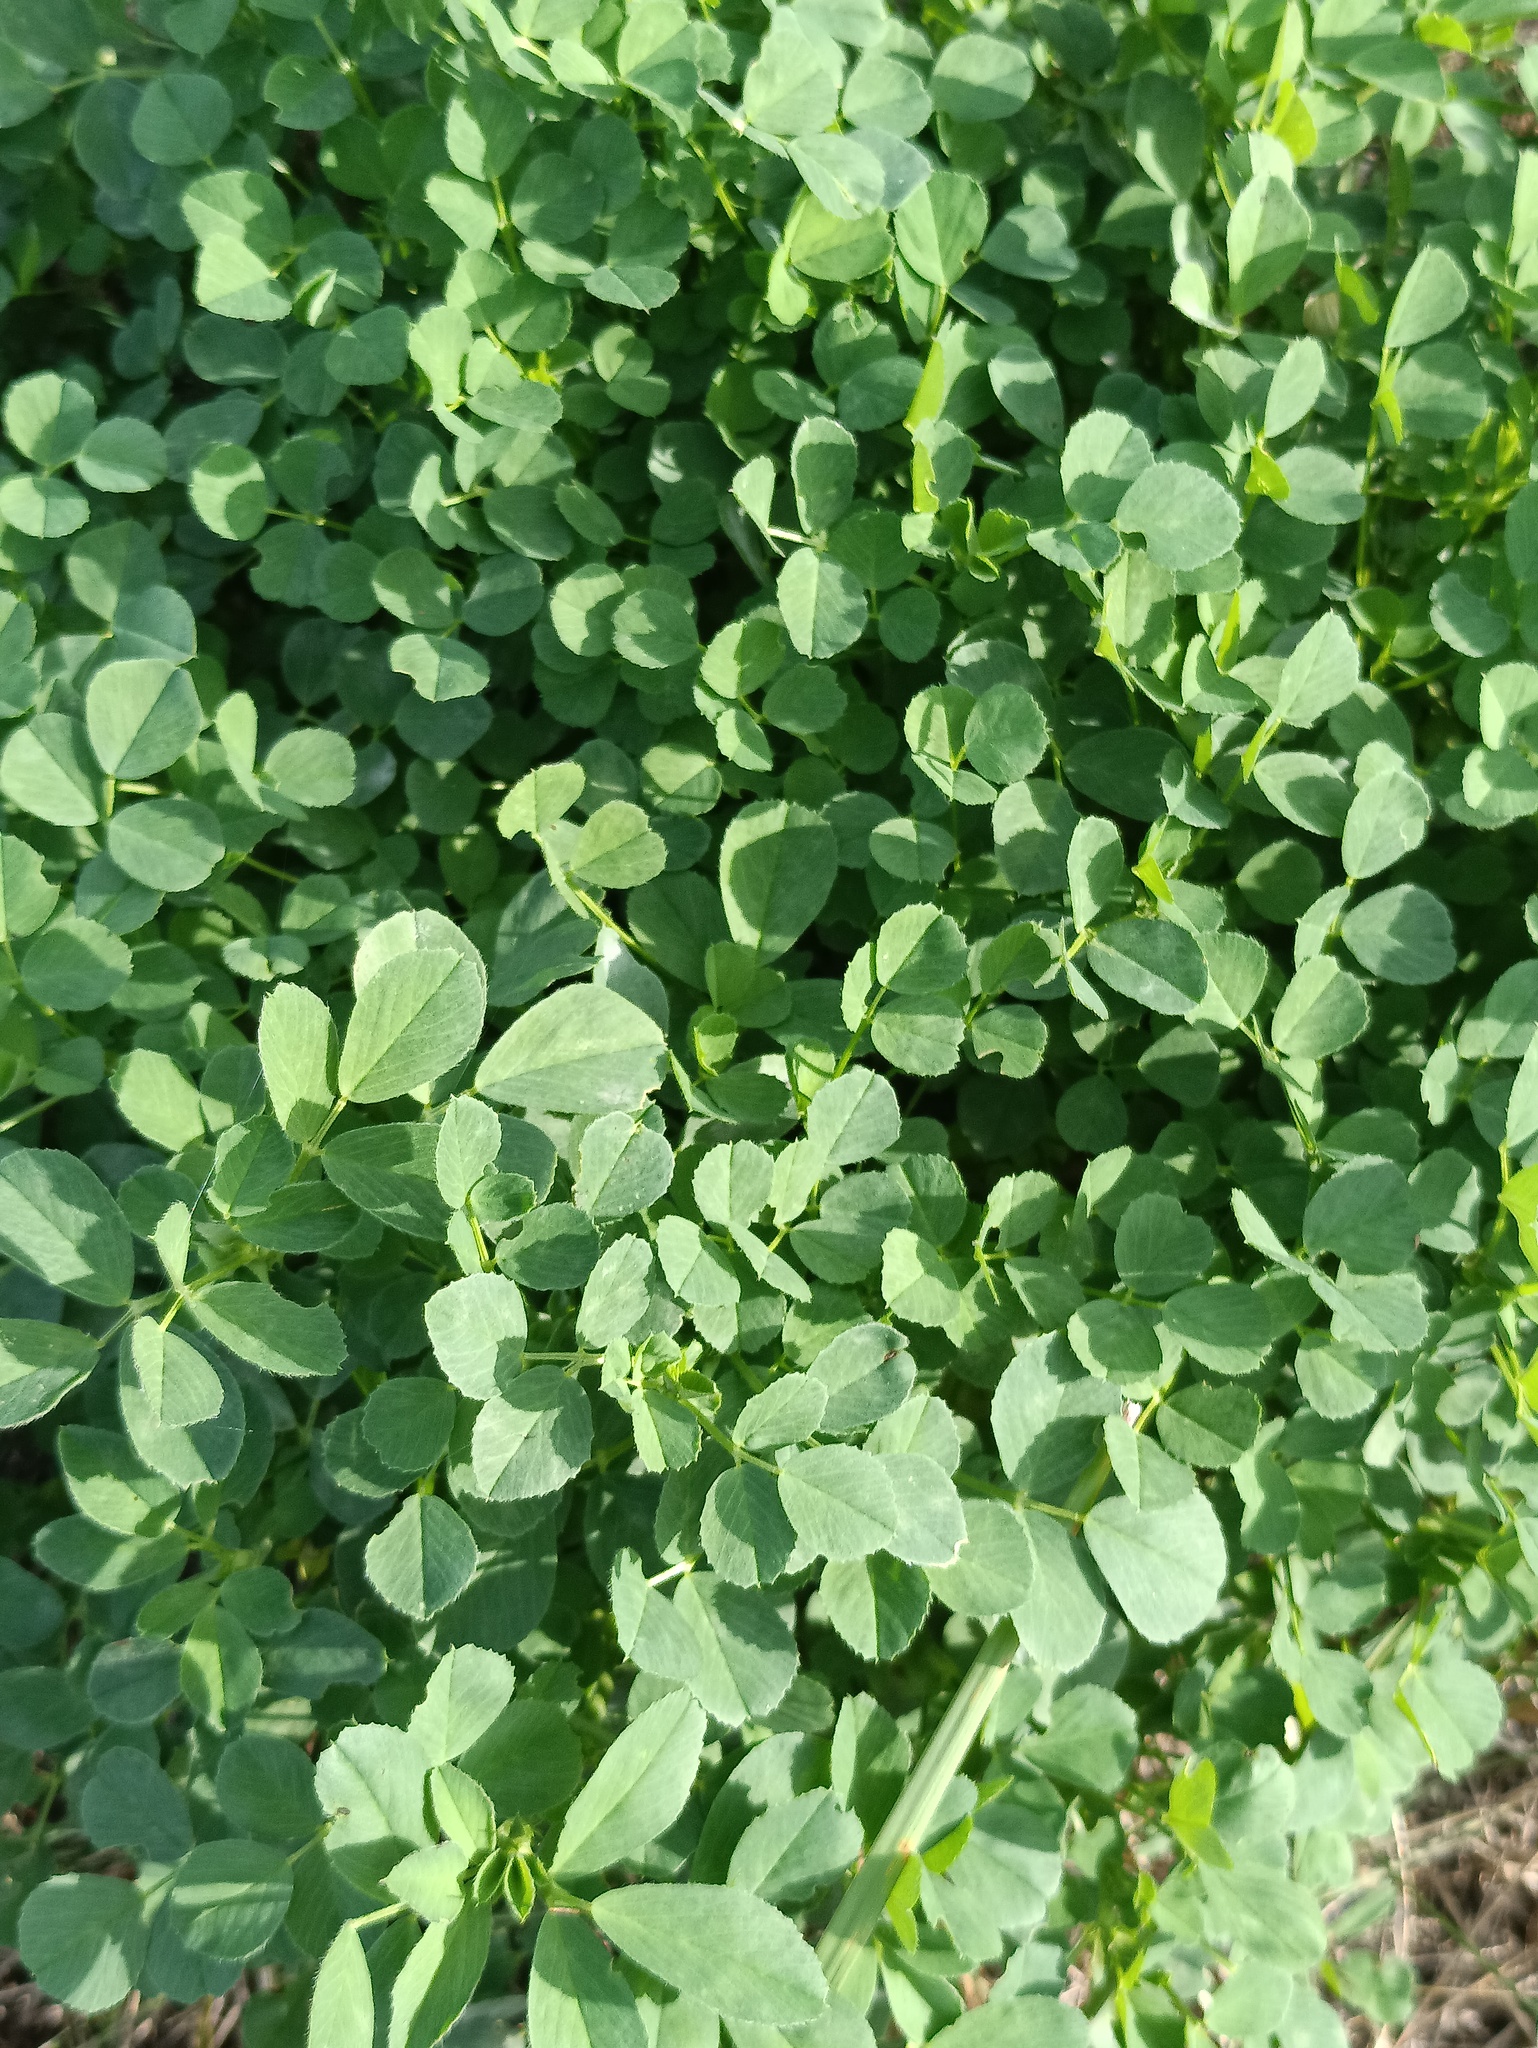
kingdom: Plantae
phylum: Tracheophyta
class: Magnoliopsida
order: Fabales
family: Fabaceae
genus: Medicago
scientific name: Medicago lupulina
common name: Black medick
